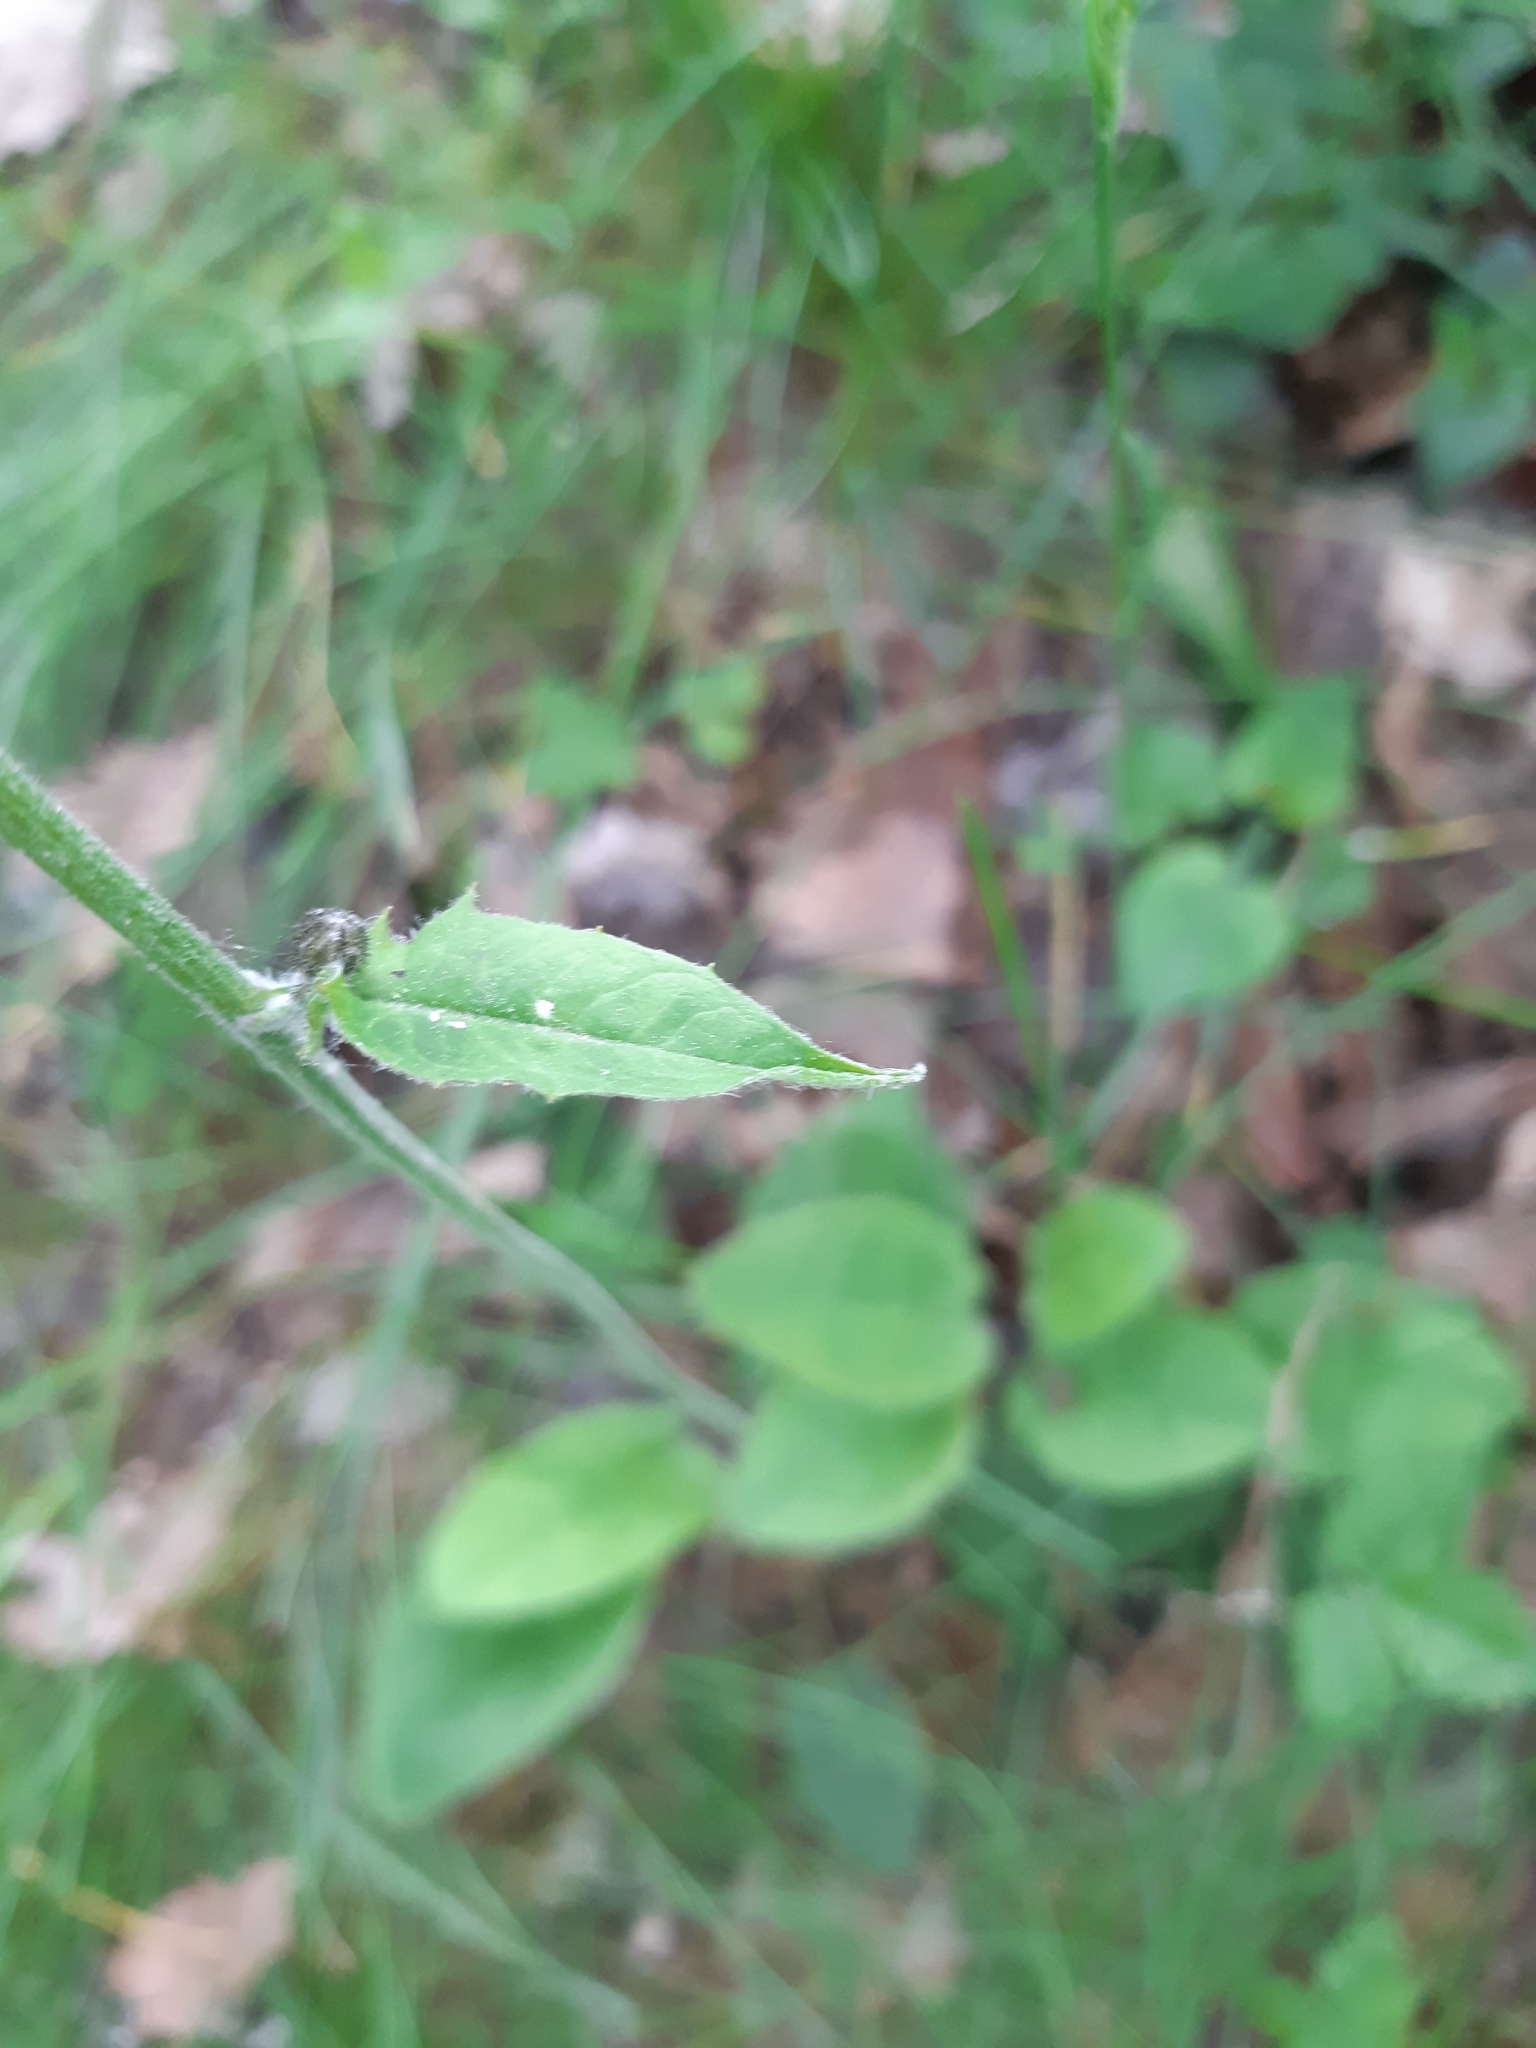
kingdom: Plantae
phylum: Tracheophyta
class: Magnoliopsida
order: Asterales
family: Asteraceae
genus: Hieracium
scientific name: Hieracium murorum
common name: Wall hawkweed
